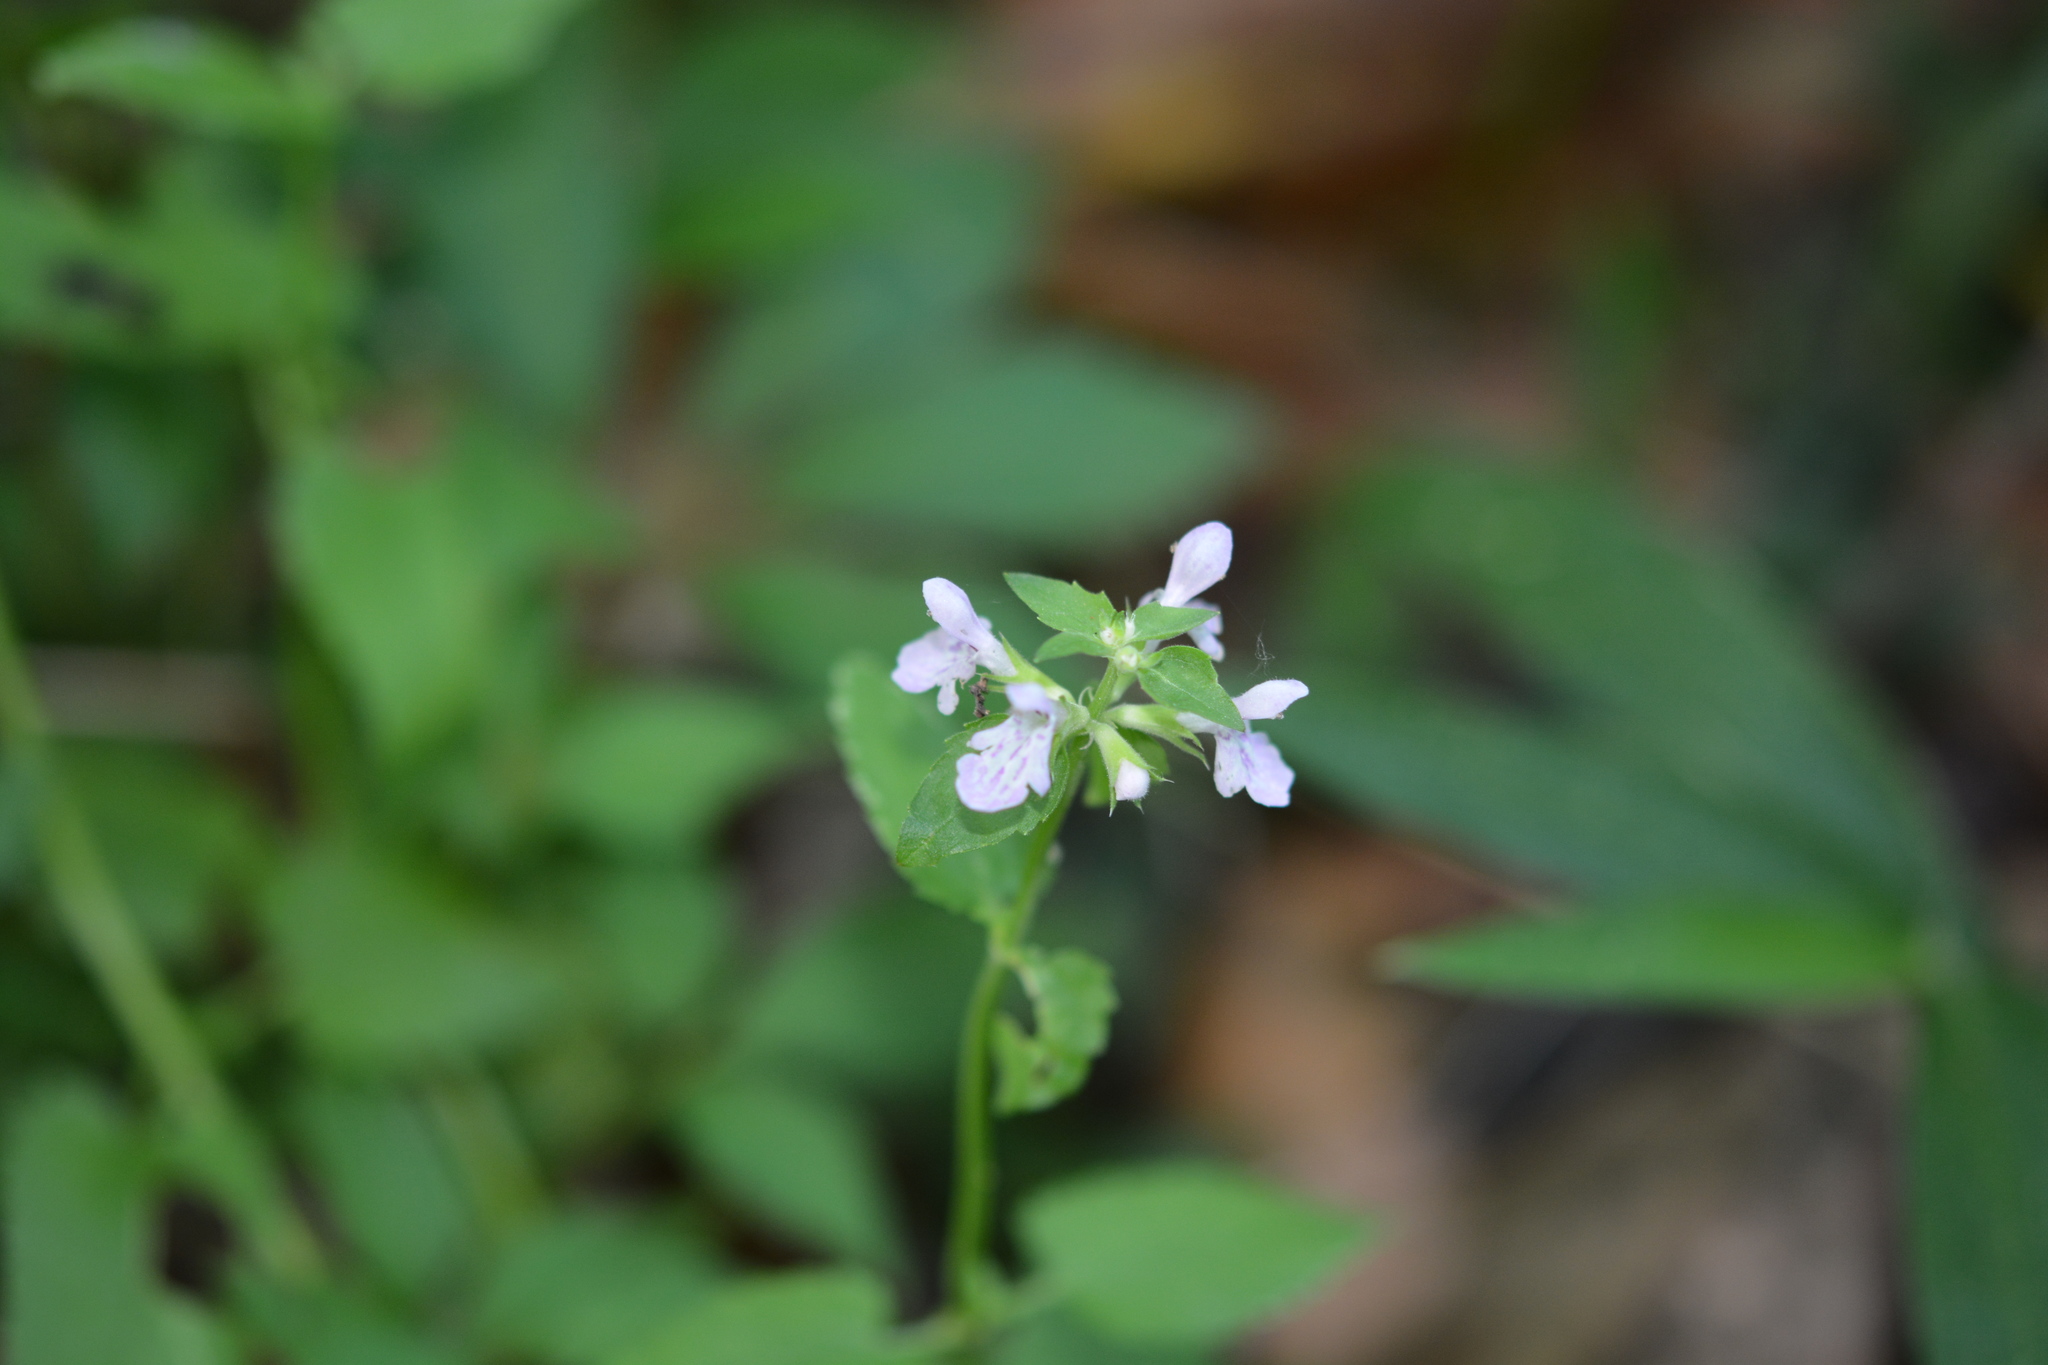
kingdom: Plantae
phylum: Tracheophyta
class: Magnoliopsida
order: Lamiales
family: Lamiaceae
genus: Stachys
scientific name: Stachys floridana
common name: Florida betony
